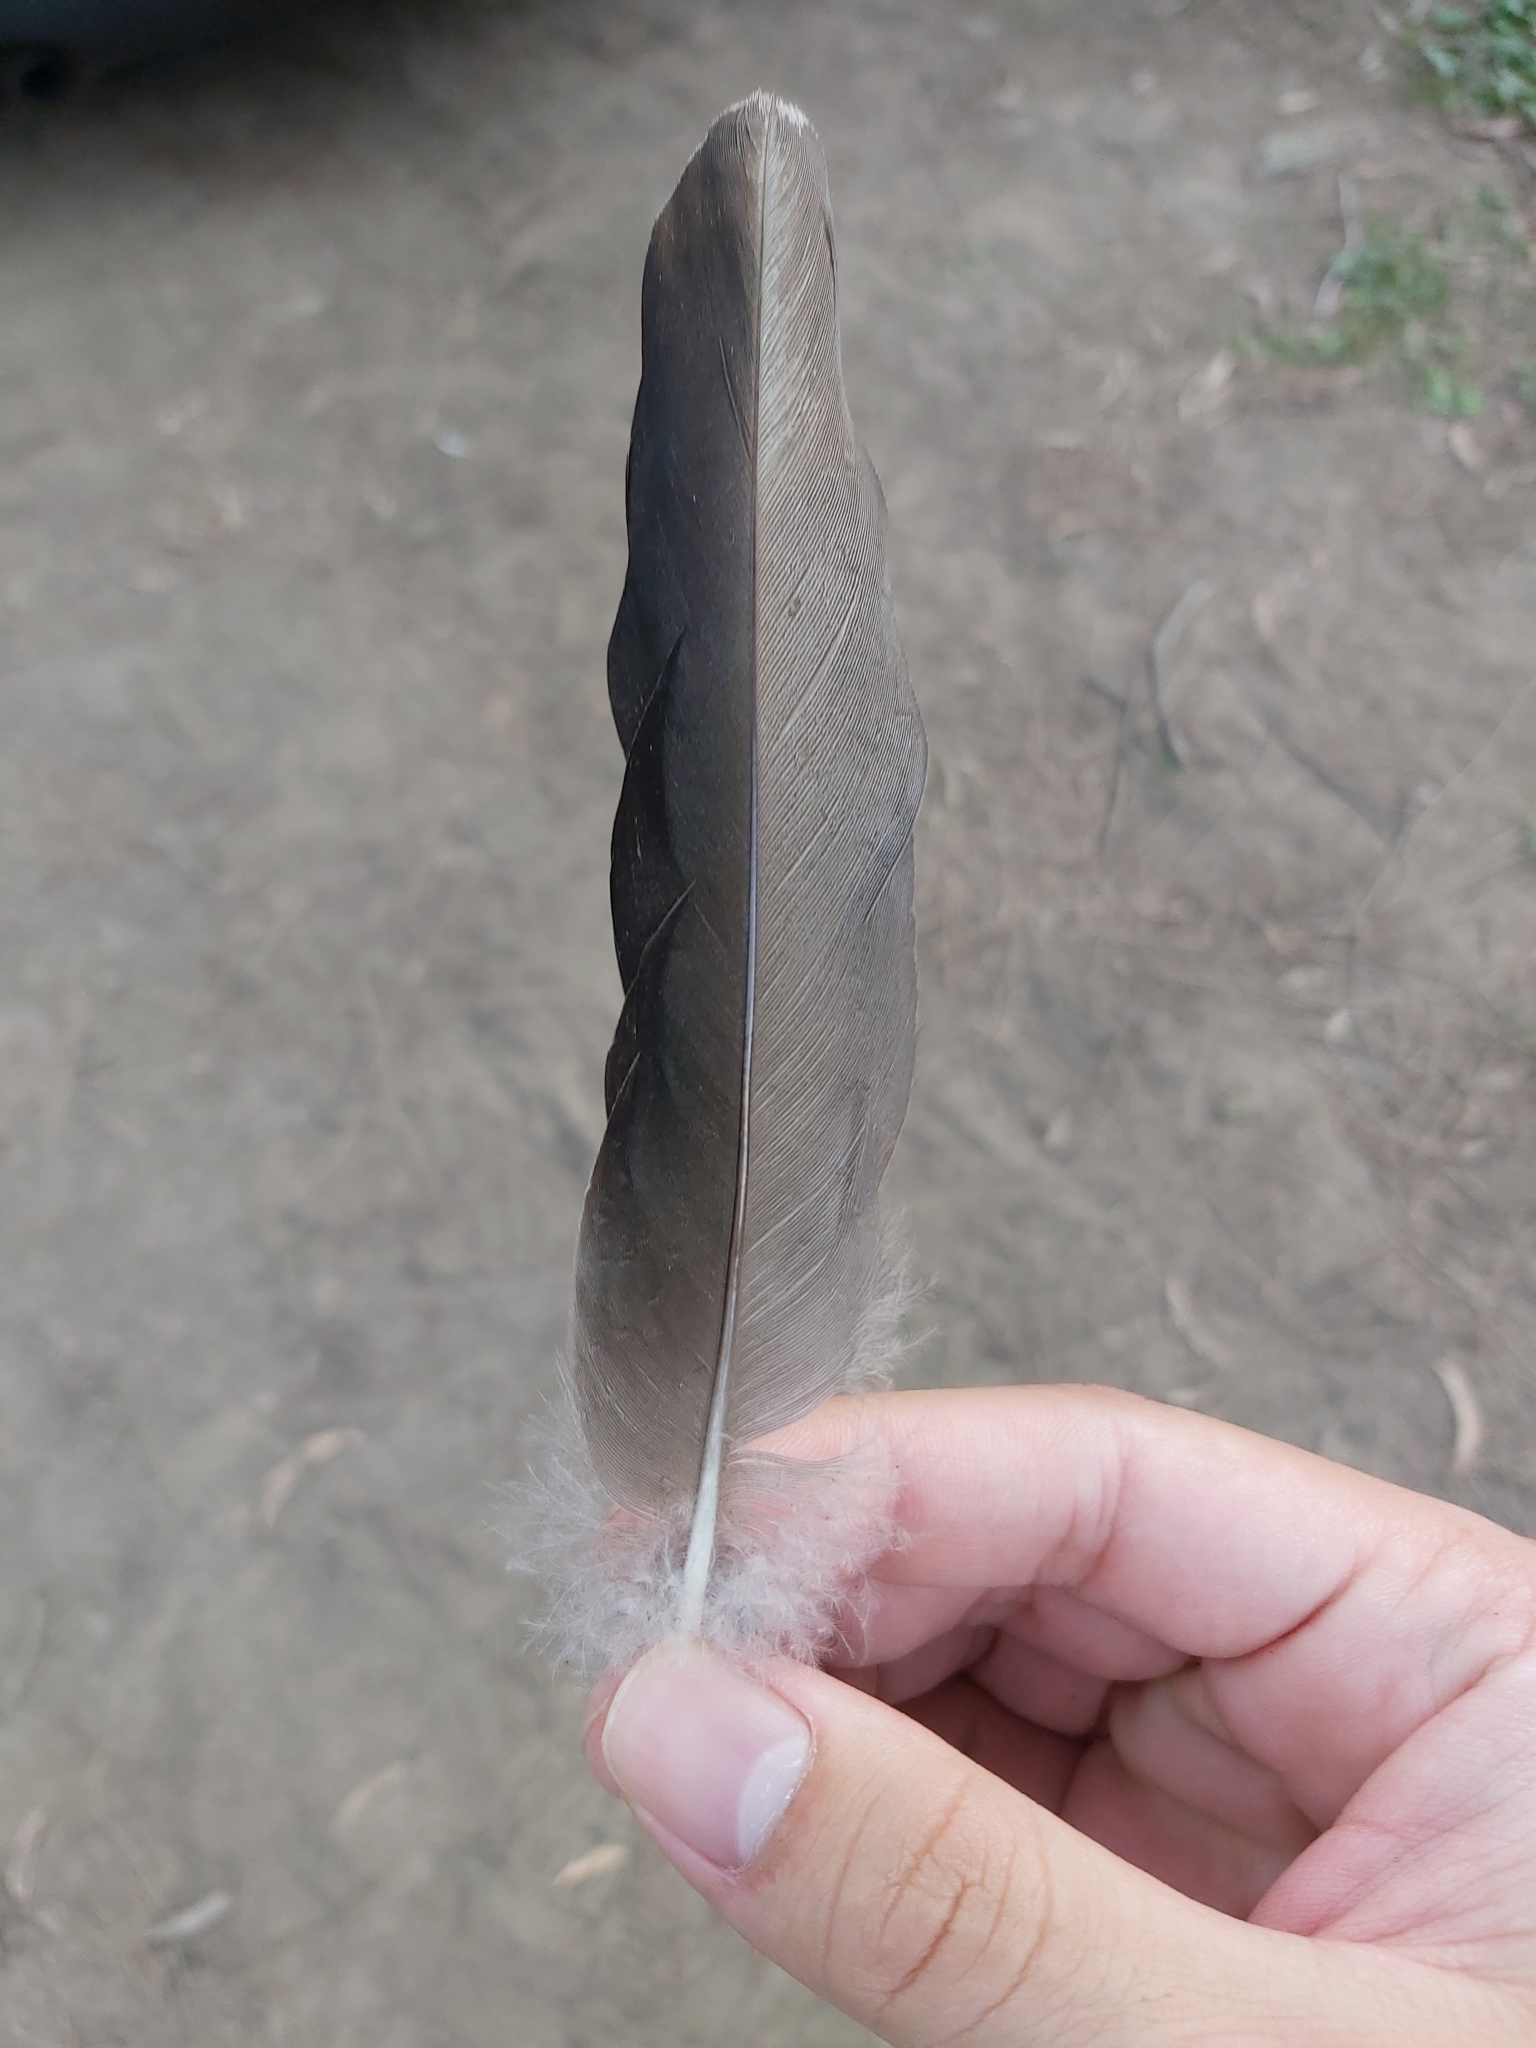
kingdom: Animalia
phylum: Chordata
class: Aves
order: Anseriformes
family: Anatidae
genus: Chenonetta
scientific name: Chenonetta jubata
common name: Maned duck
